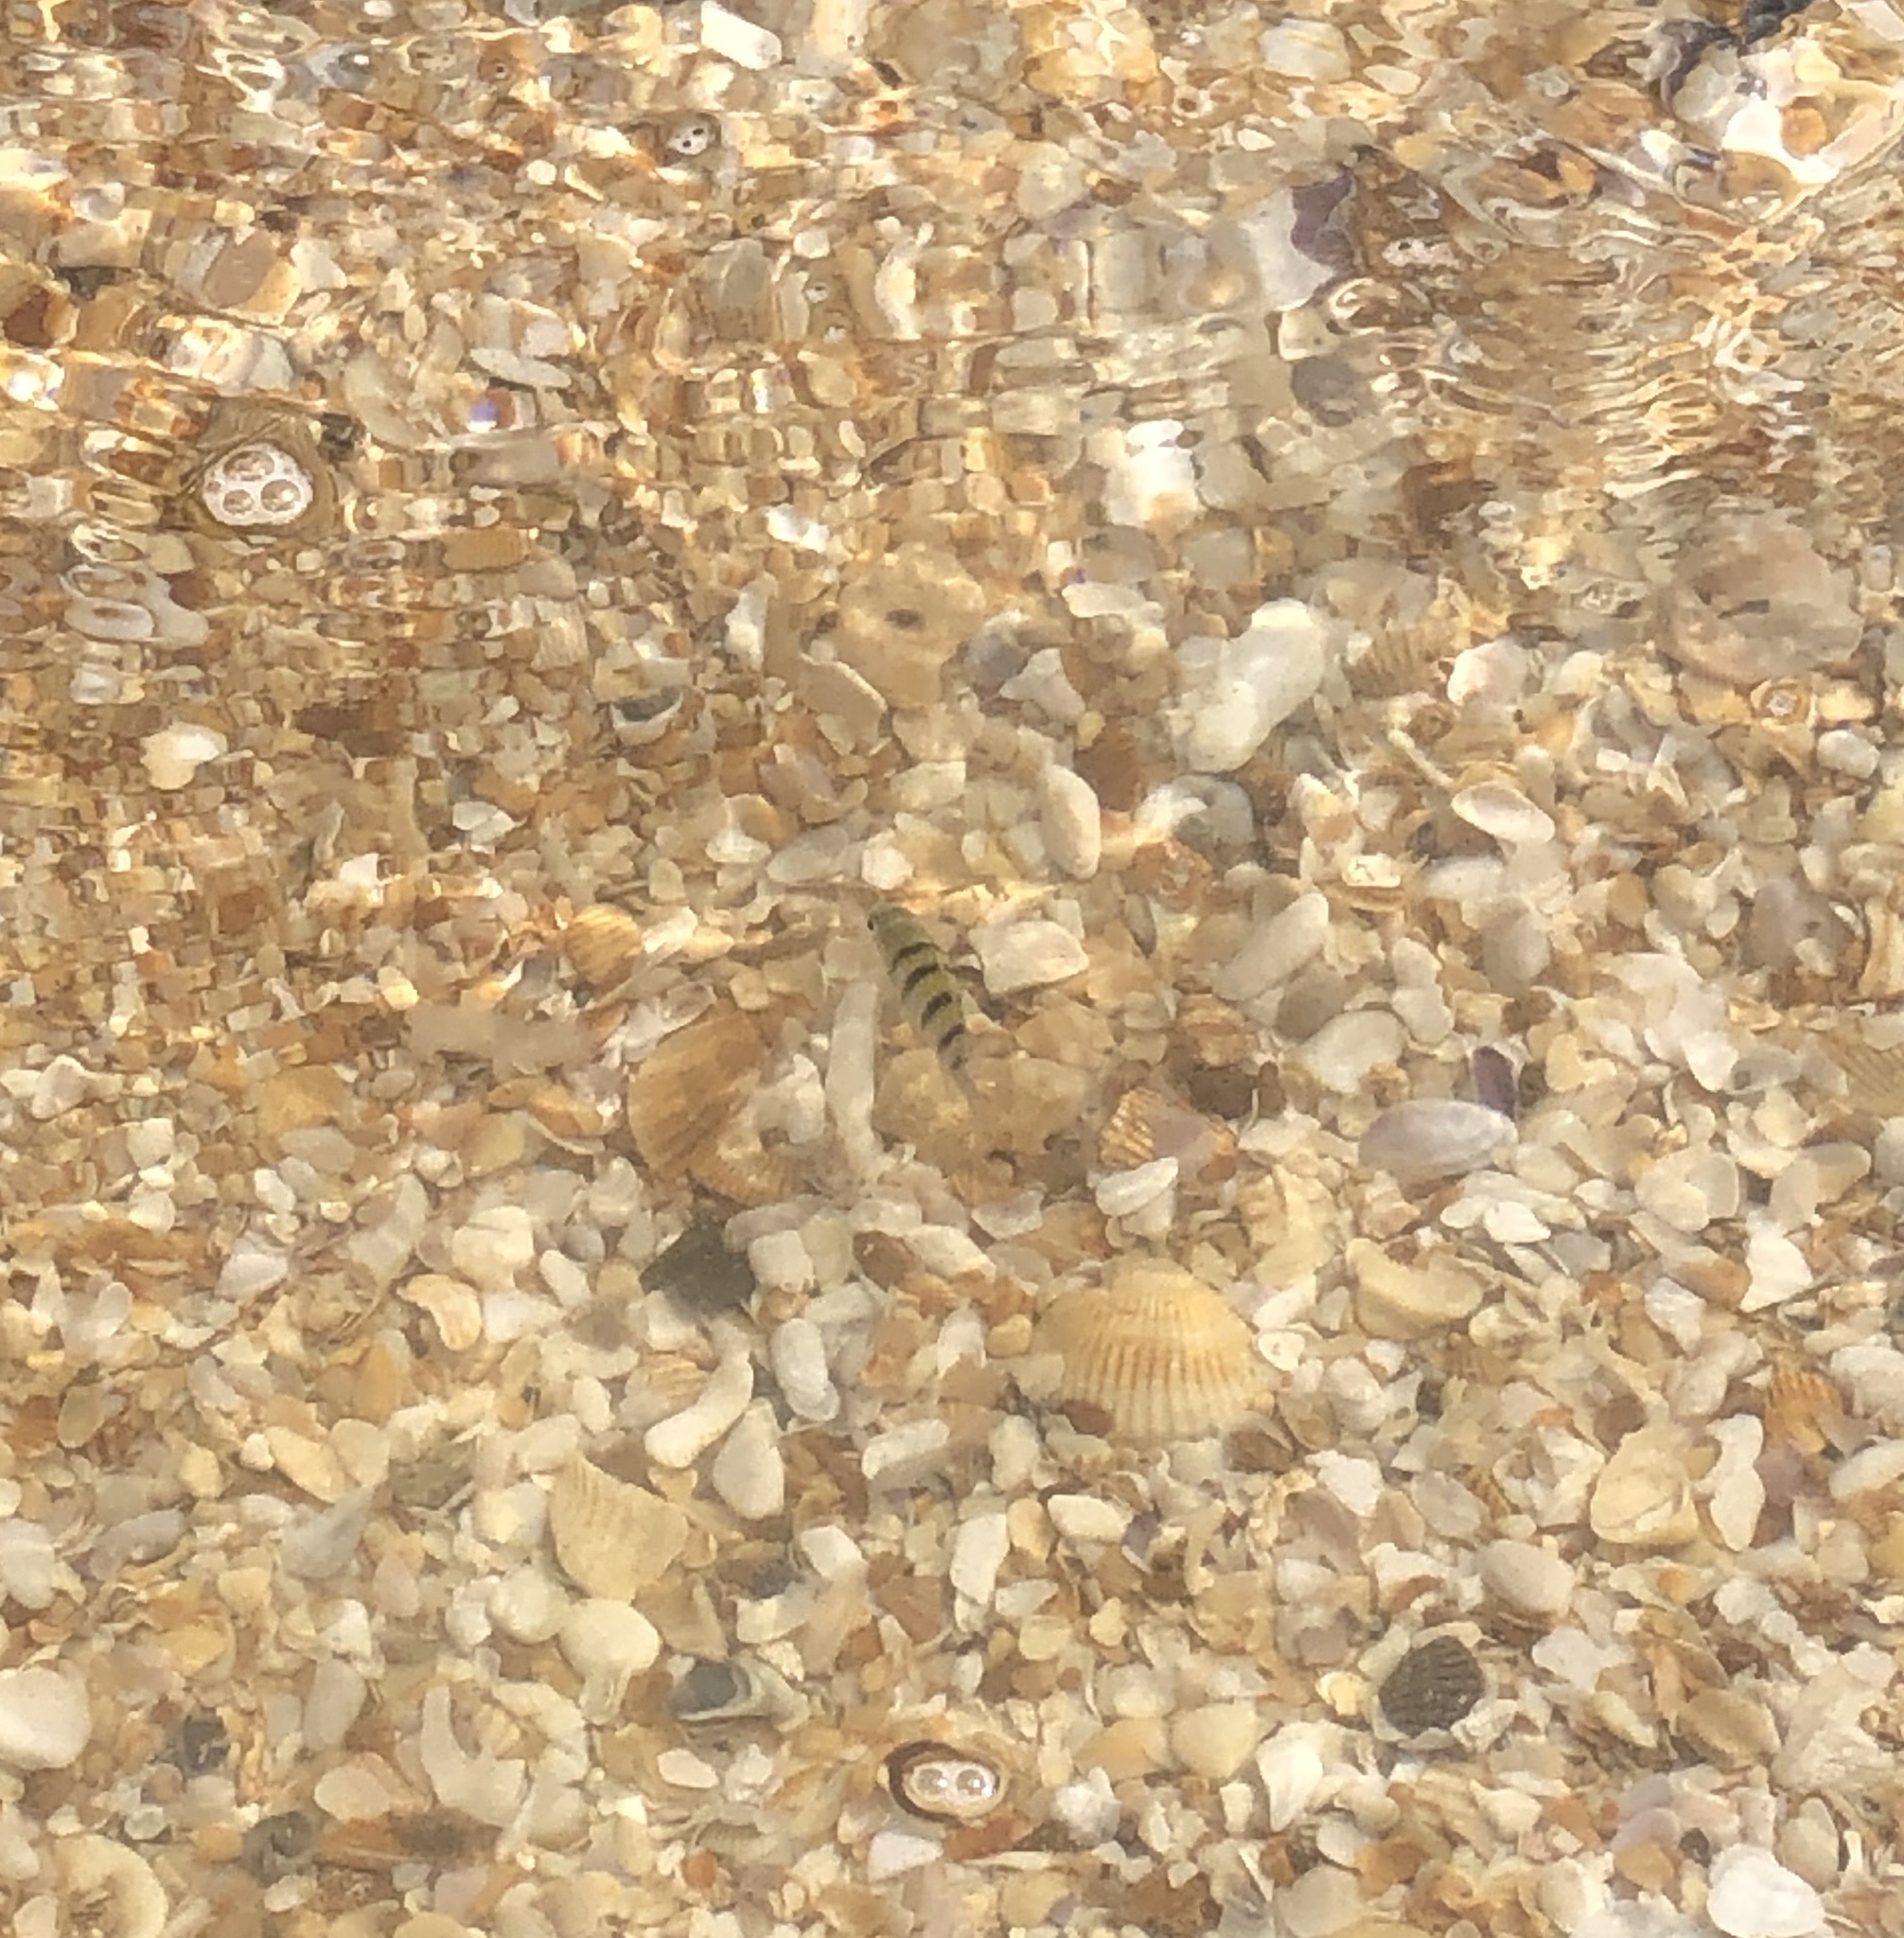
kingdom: Animalia
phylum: Chordata
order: Perciformes
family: Pomacentridae
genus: Abudefduf
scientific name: Abudefduf saxatilis
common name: Sergeant major
